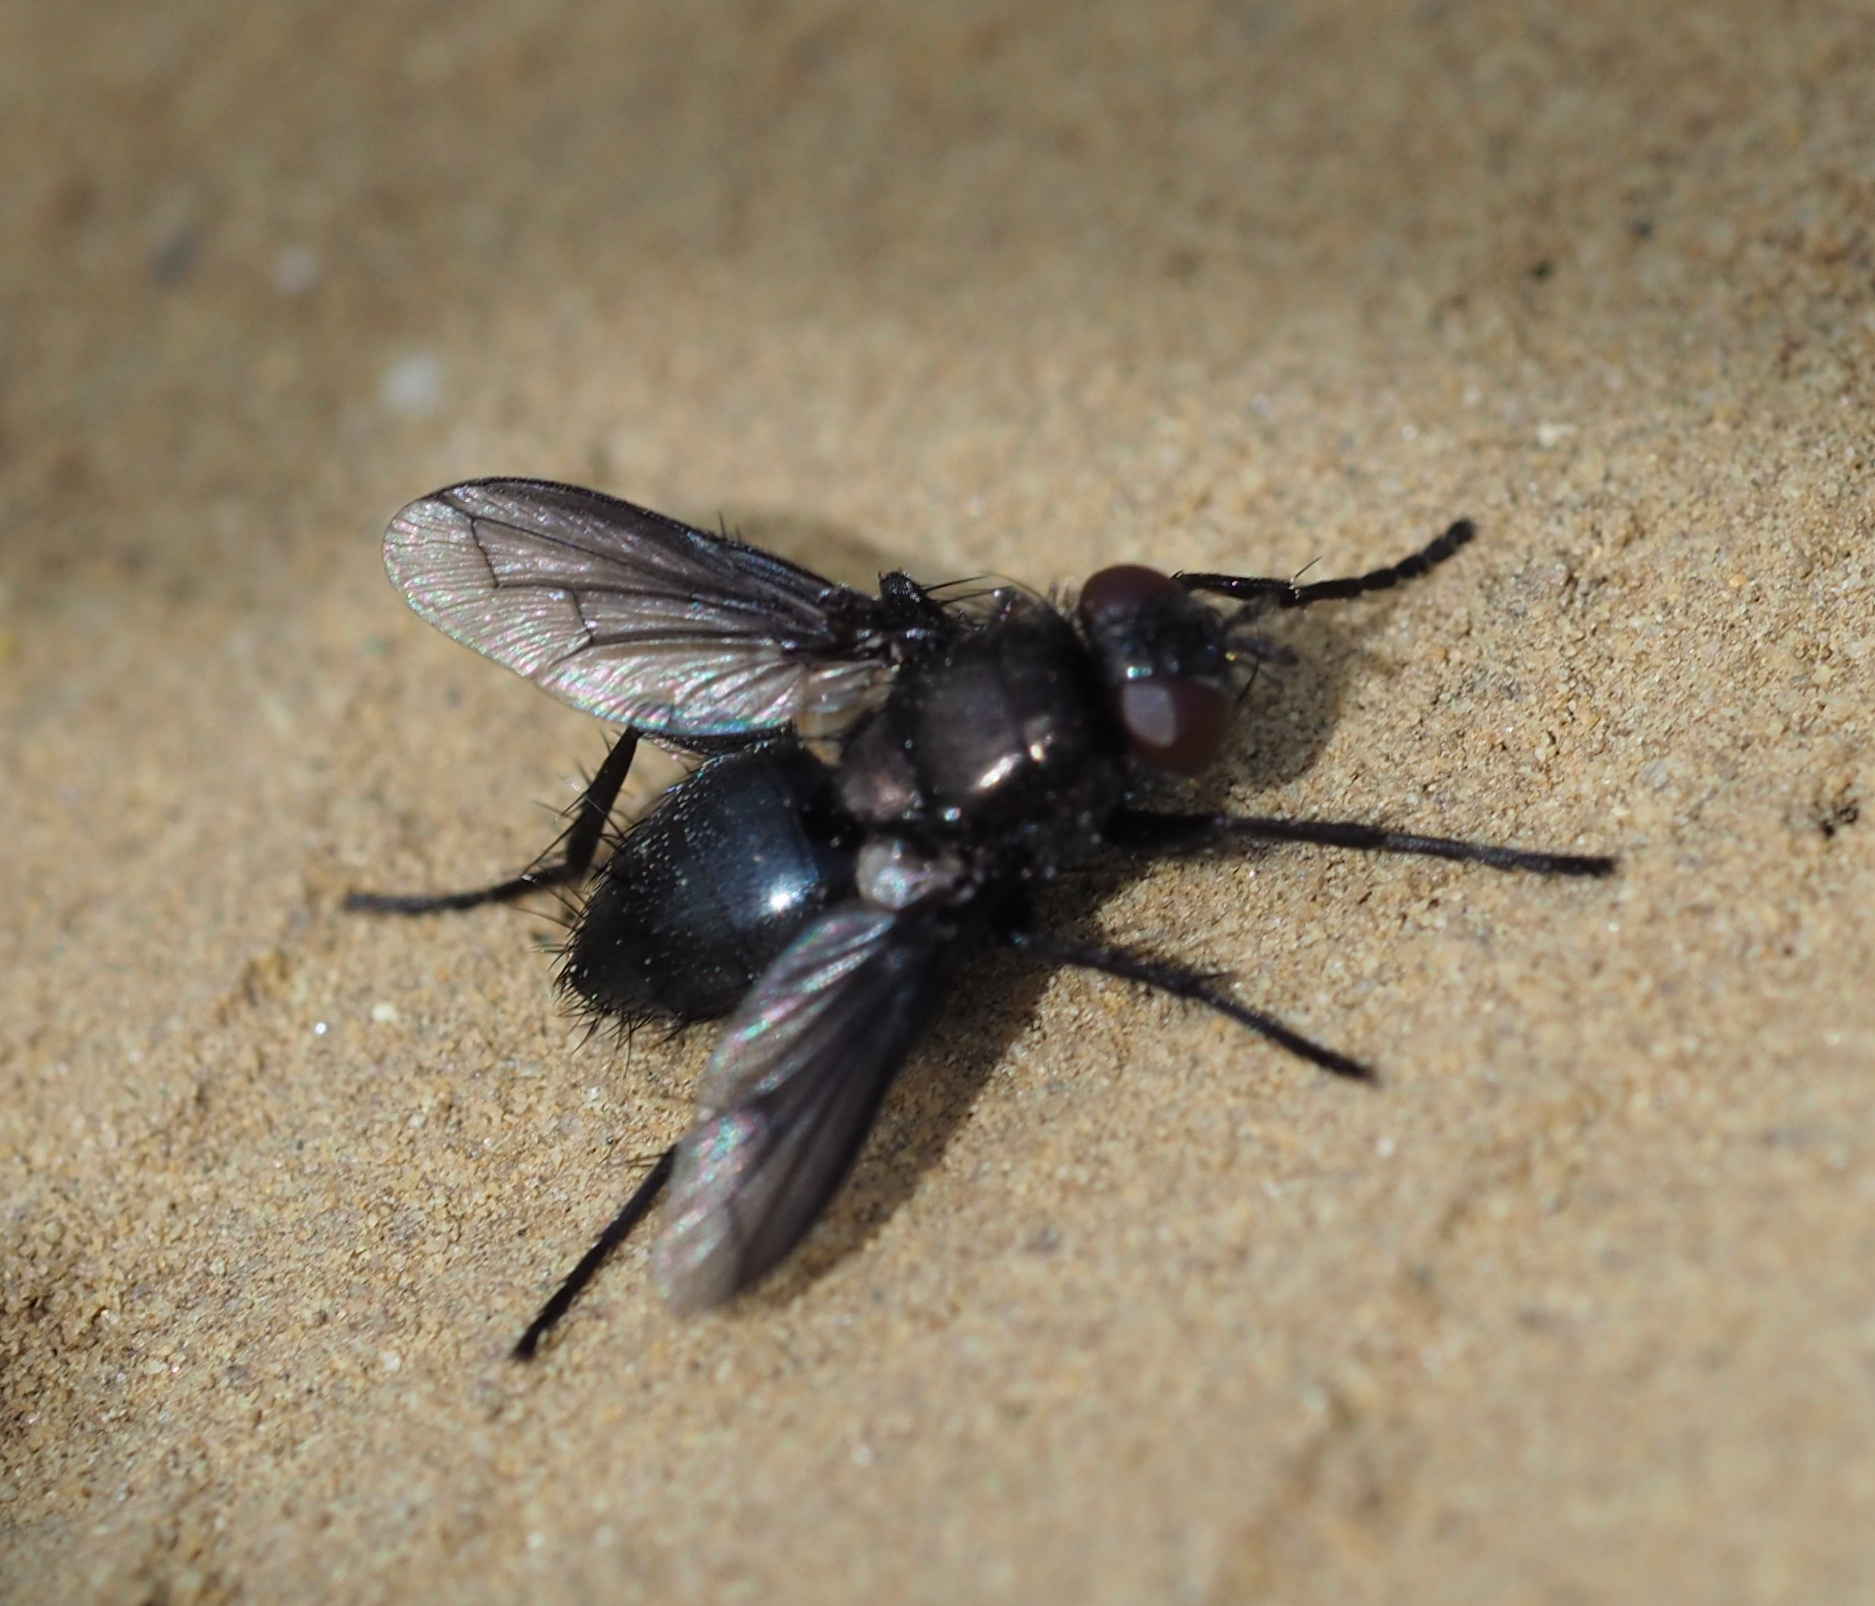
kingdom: Animalia
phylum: Arthropoda
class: Insecta
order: Diptera
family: Tachinidae
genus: Kirbya
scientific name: Kirbya moerens
